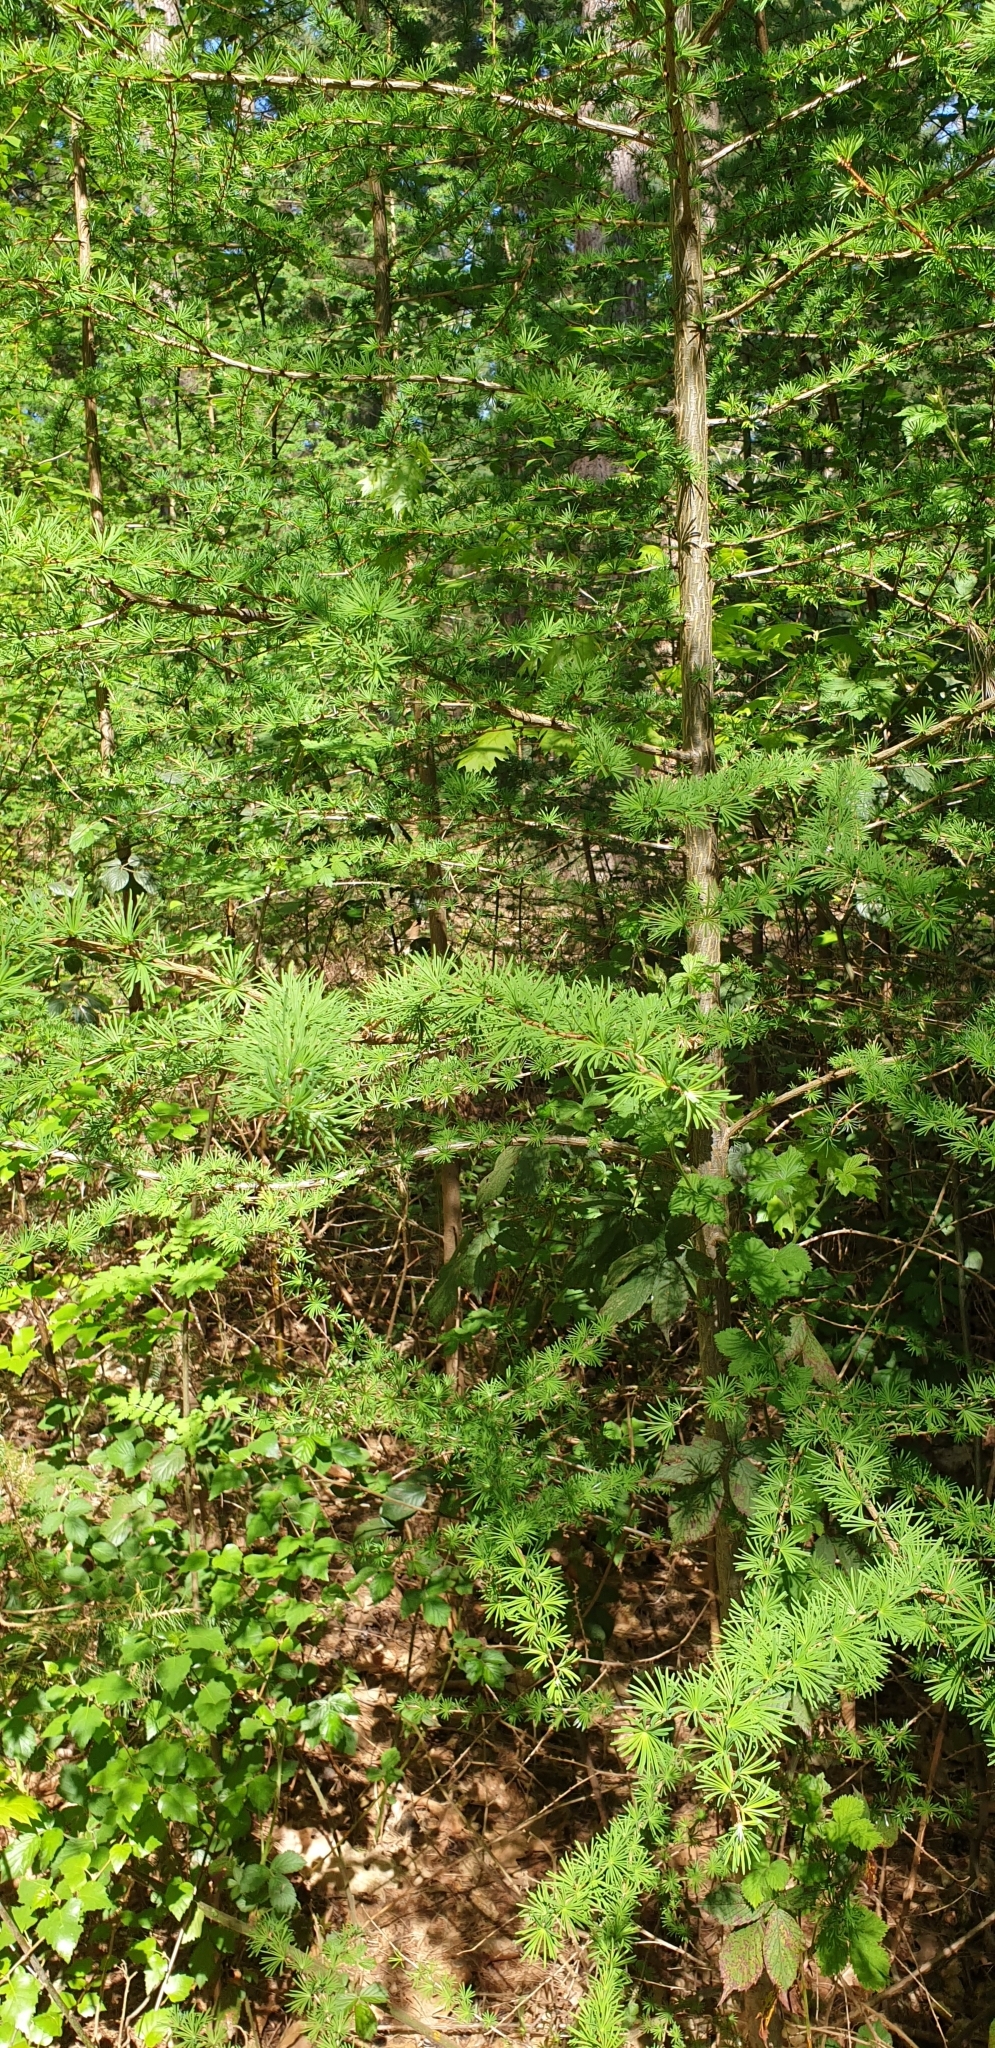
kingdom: Plantae
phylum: Tracheophyta
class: Pinopsida
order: Pinales
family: Pinaceae
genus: Larix
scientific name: Larix decidua
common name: European larch
